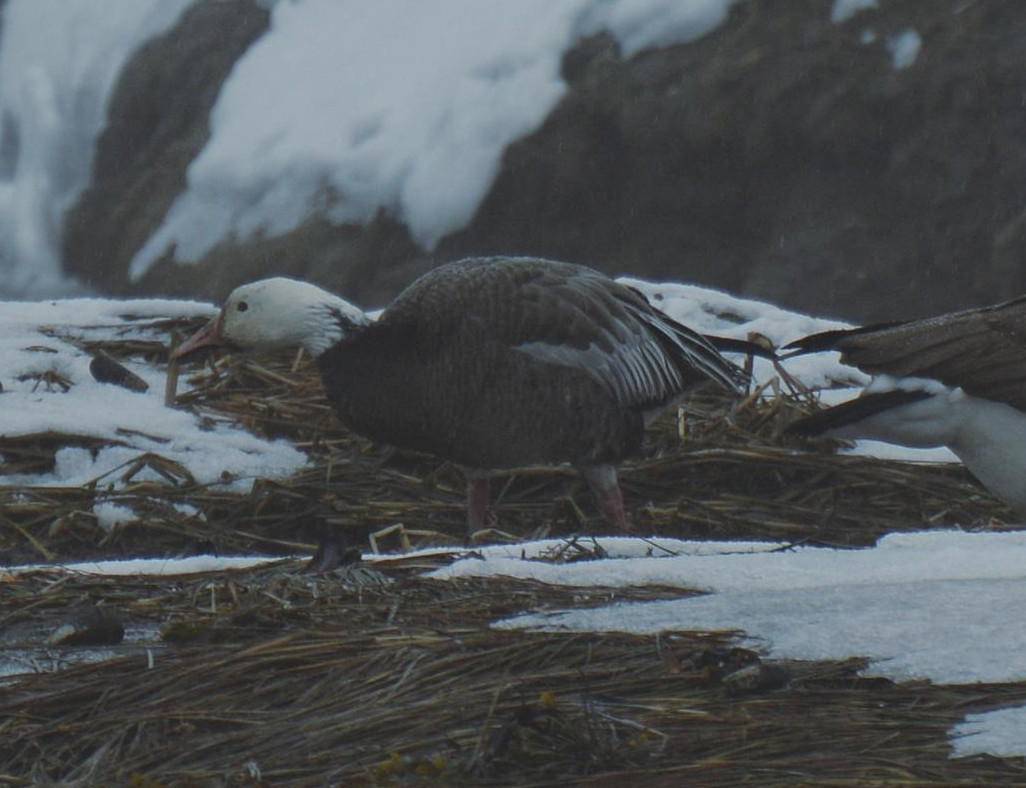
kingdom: Animalia
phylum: Chordata
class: Aves
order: Anseriformes
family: Anatidae
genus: Anser
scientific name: Anser caerulescens
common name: Snow goose
